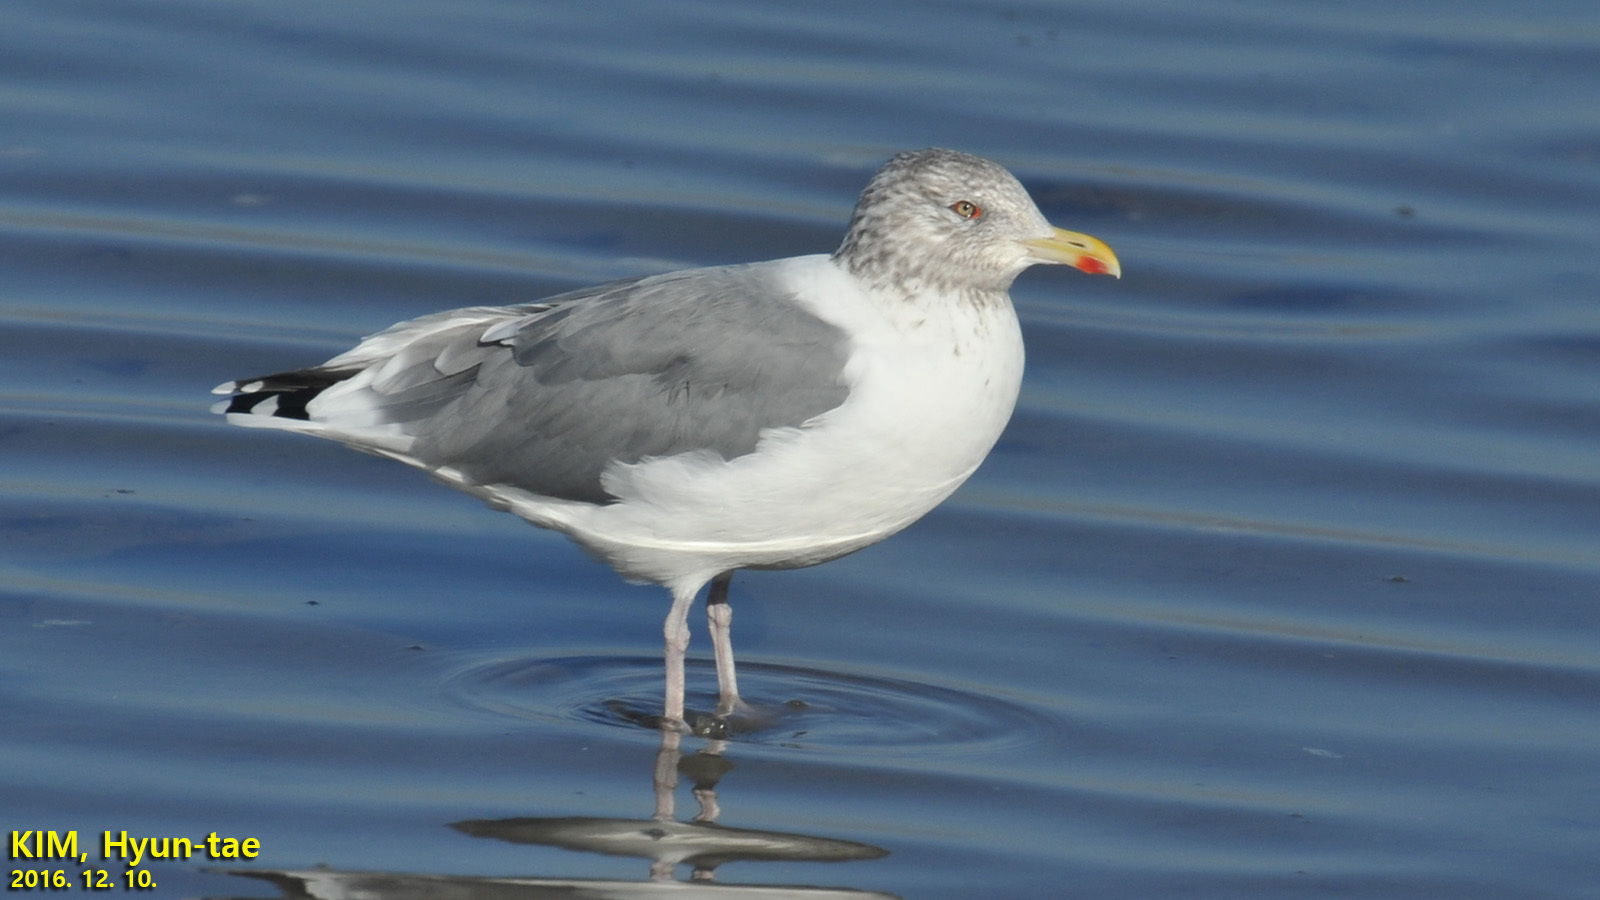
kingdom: Animalia
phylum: Chordata
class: Aves
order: Charadriiformes
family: Laridae
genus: Larus
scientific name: Larus argentatus
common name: Herring gull
